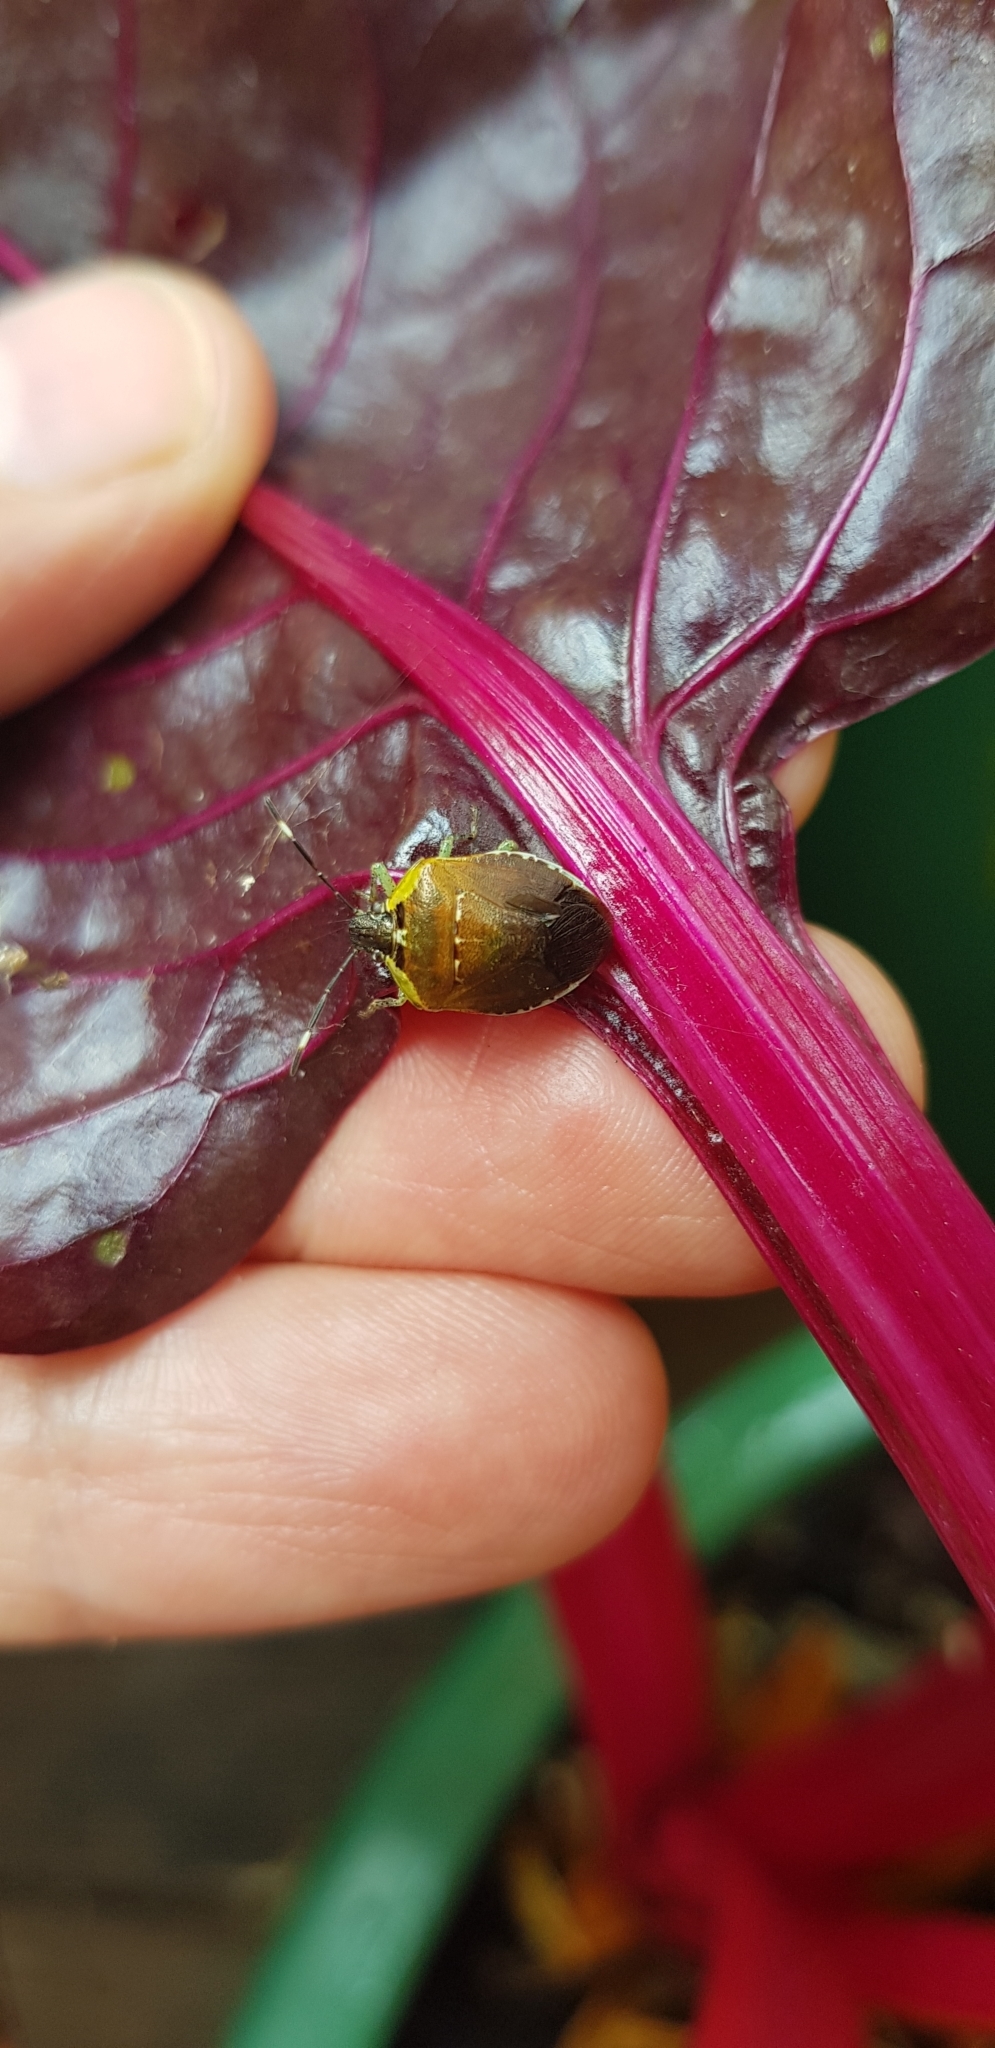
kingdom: Animalia
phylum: Arthropoda
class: Insecta
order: Hemiptera
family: Pentatomidae
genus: Monteithiella
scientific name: Monteithiella
